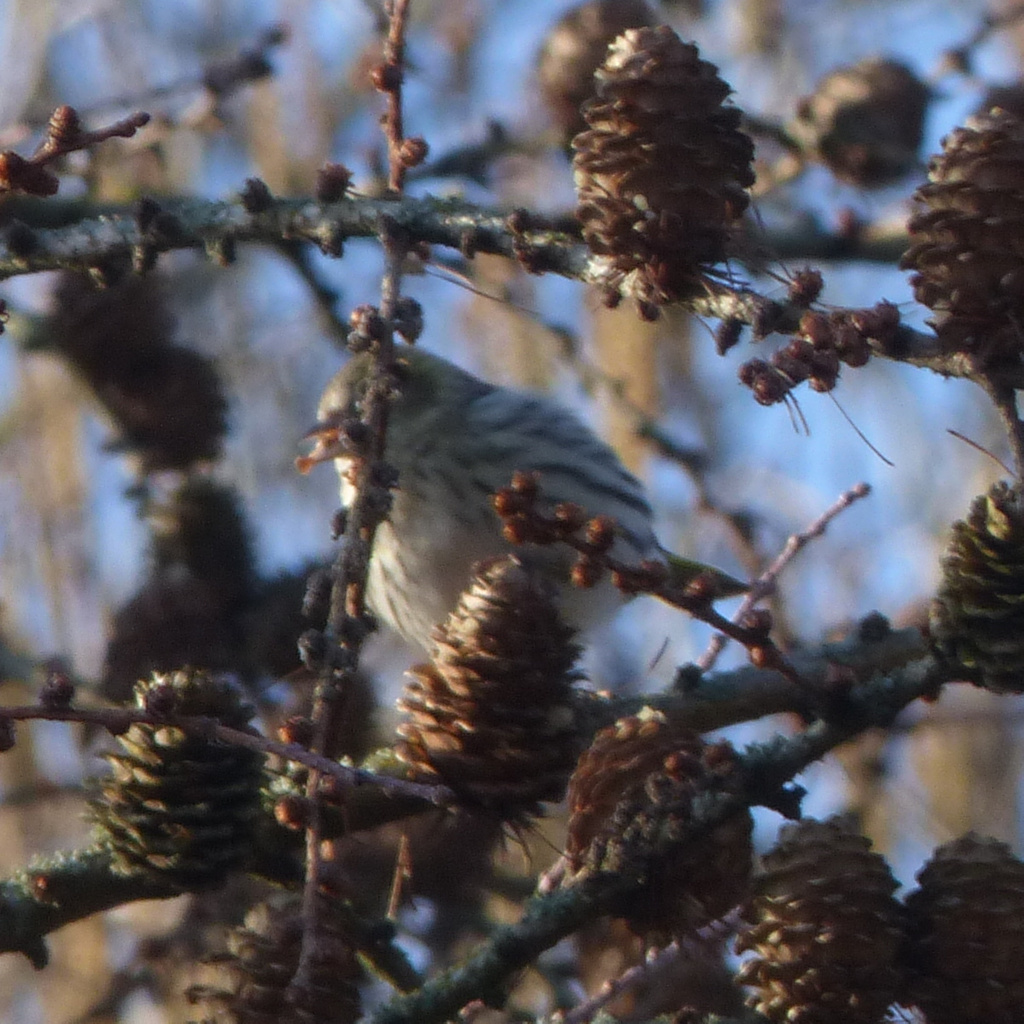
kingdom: Animalia
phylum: Chordata
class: Aves
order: Passeriformes
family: Fringillidae
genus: Spinus
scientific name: Spinus spinus
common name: Eurasian siskin
